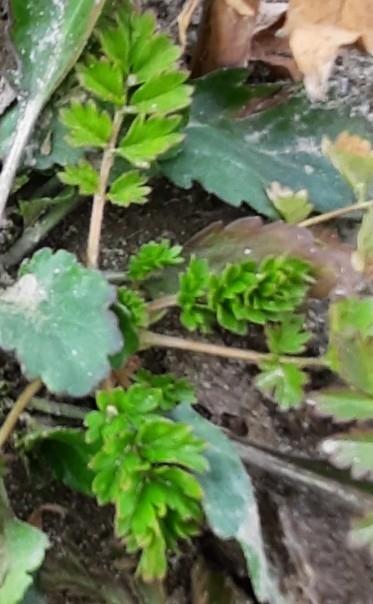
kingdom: Plantae
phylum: Tracheophyta
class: Magnoliopsida
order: Rosales
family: Rosaceae
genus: Argentina
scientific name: Argentina anserina
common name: Common silverweed
